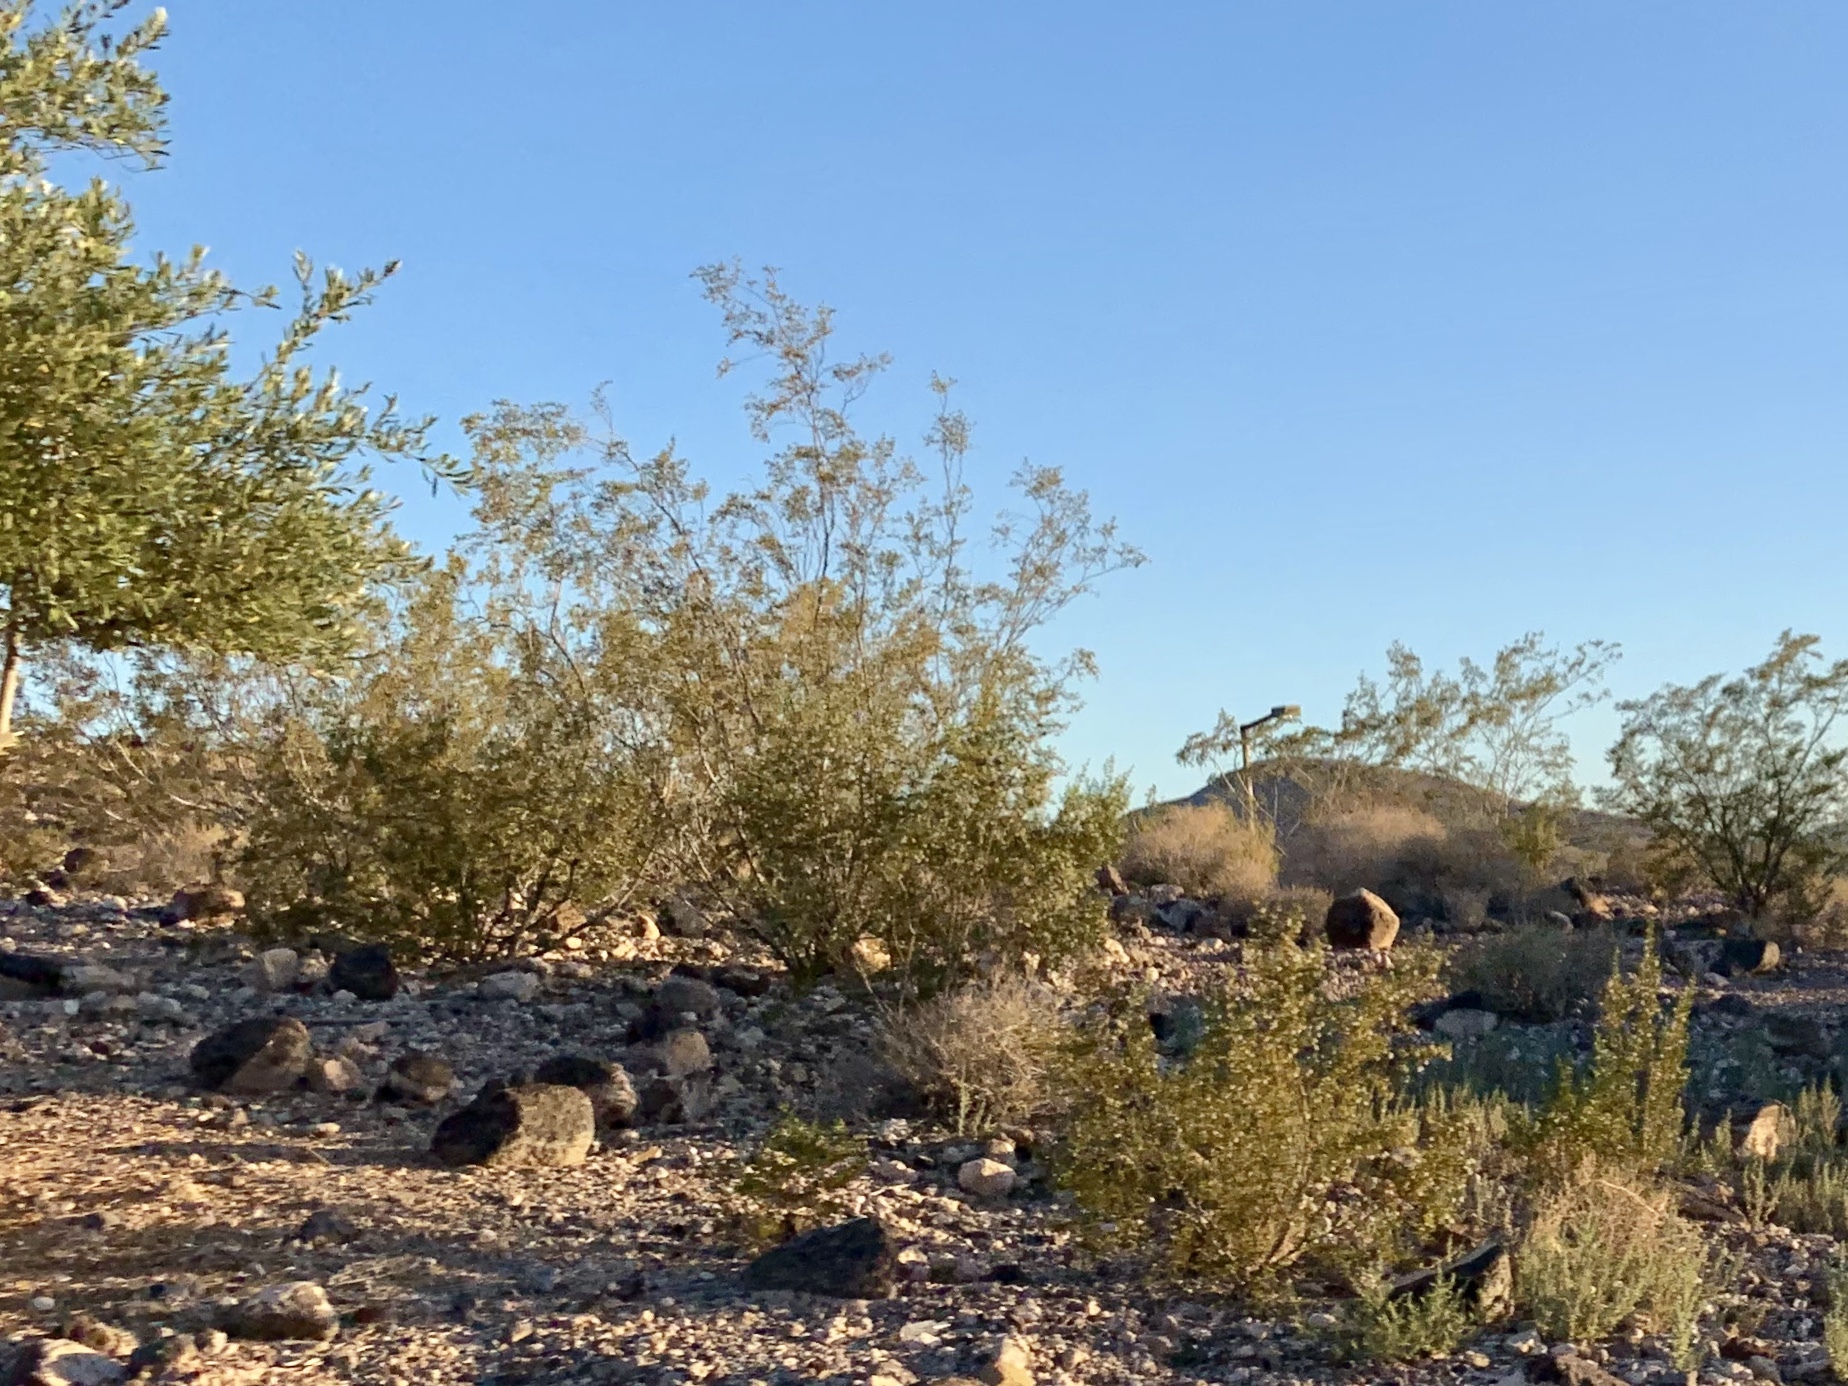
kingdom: Plantae
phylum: Tracheophyta
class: Magnoliopsida
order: Zygophyllales
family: Zygophyllaceae
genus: Larrea
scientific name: Larrea tridentata
